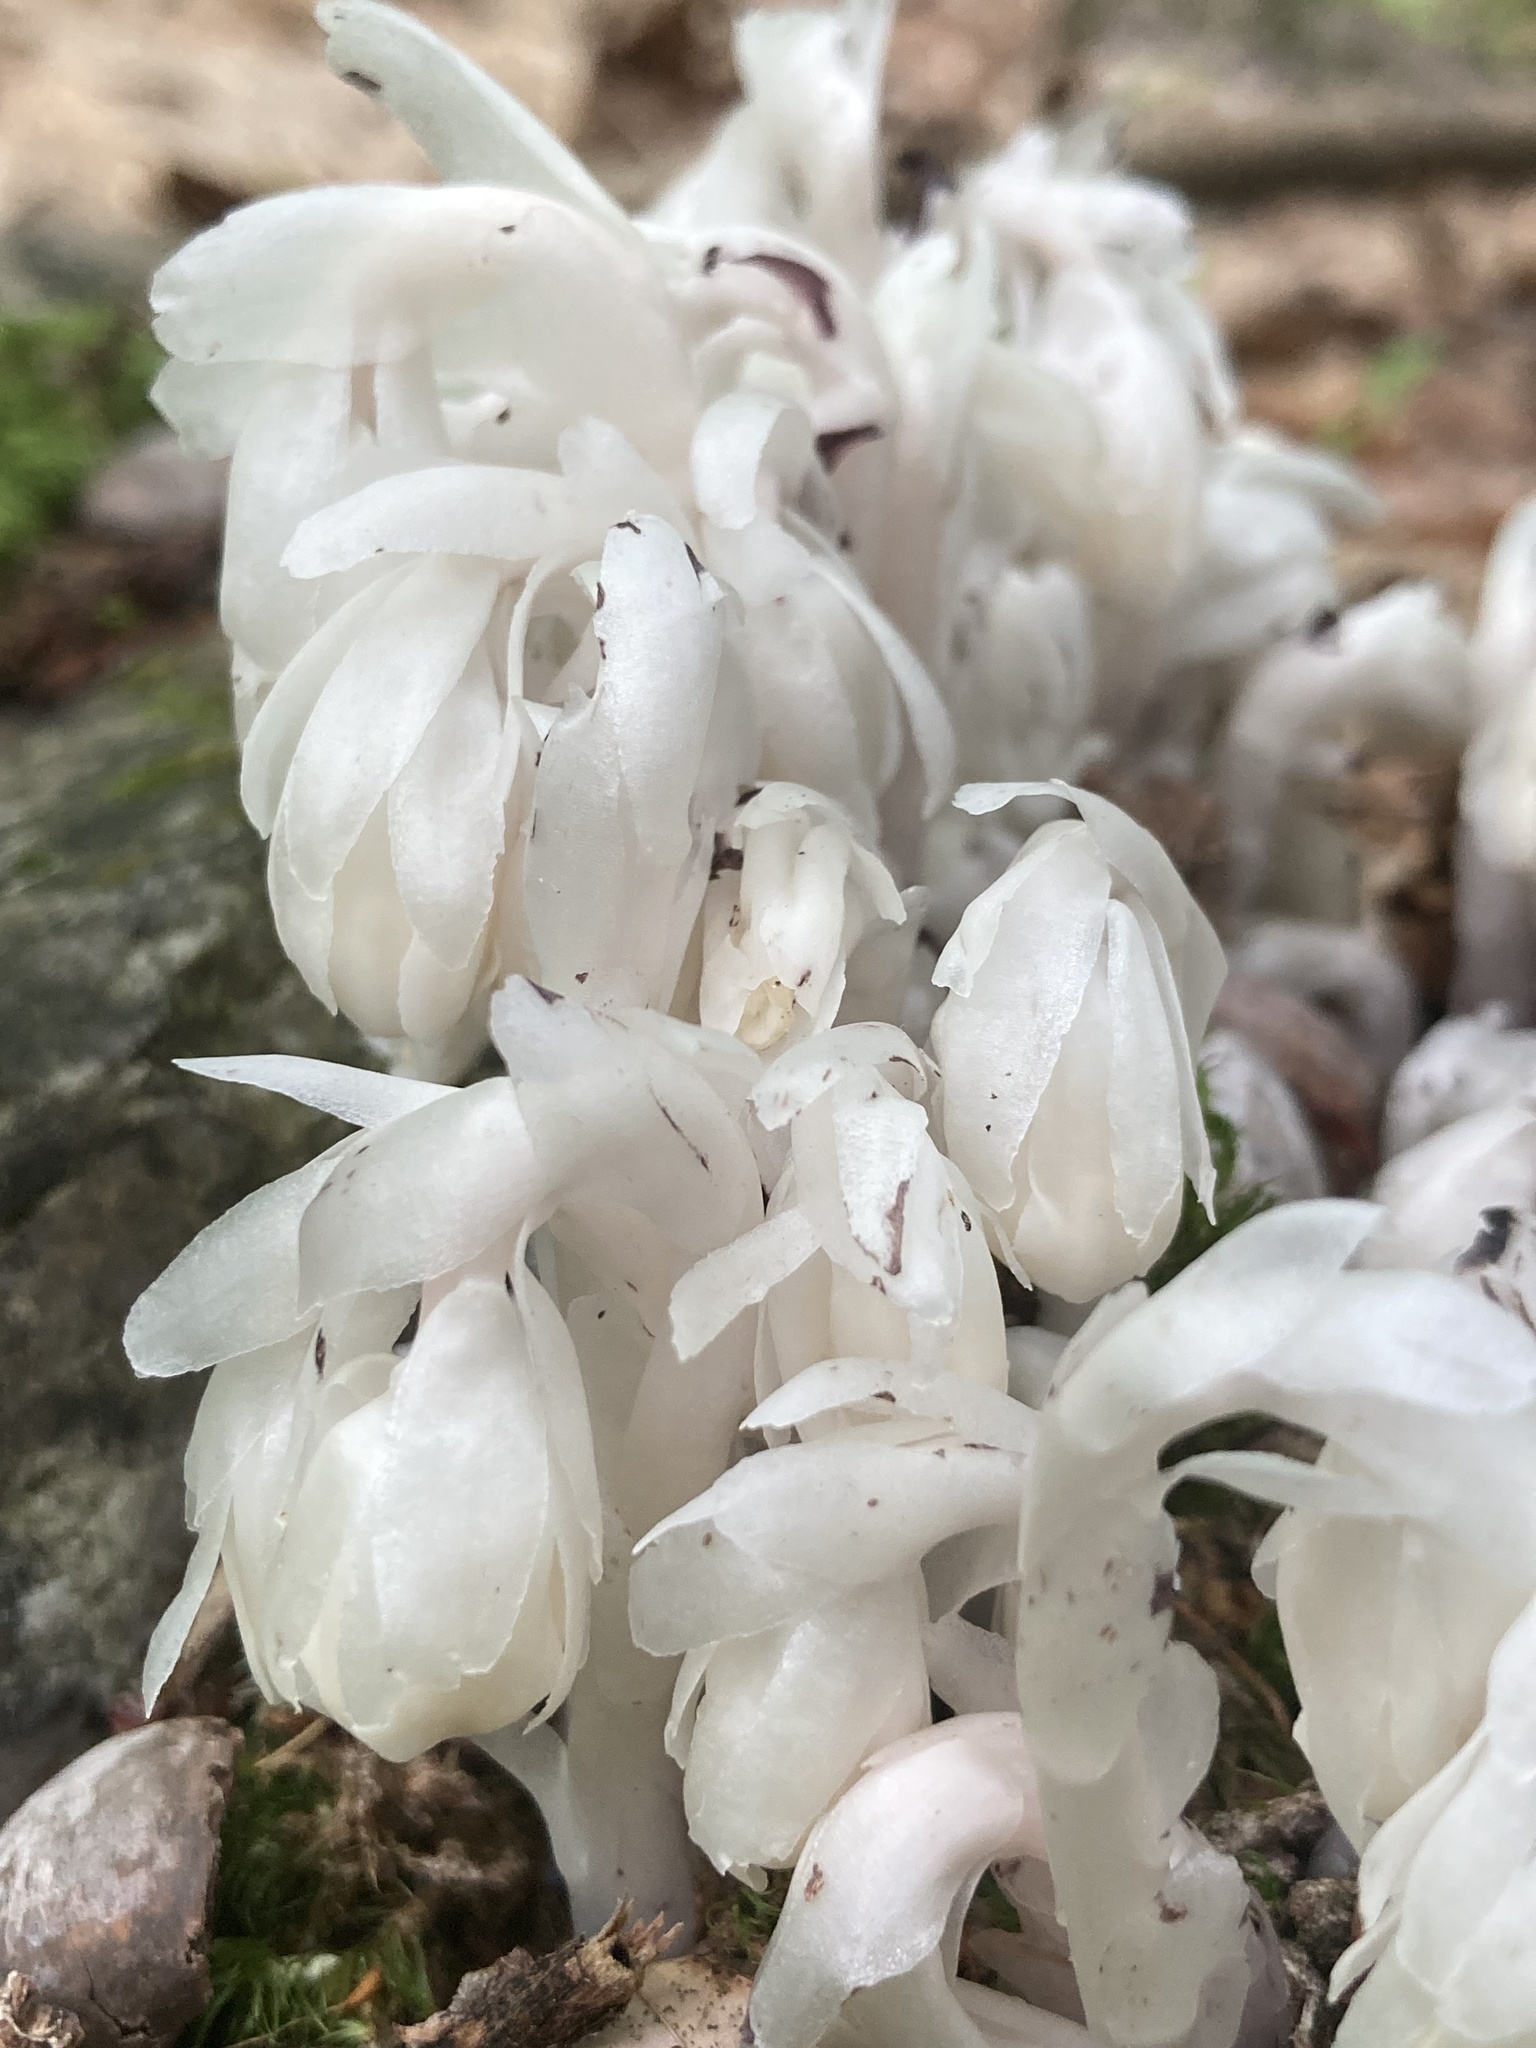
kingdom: Plantae
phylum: Tracheophyta
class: Magnoliopsida
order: Ericales
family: Ericaceae
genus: Monotropa
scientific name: Monotropa uniflora
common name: Convulsion root
